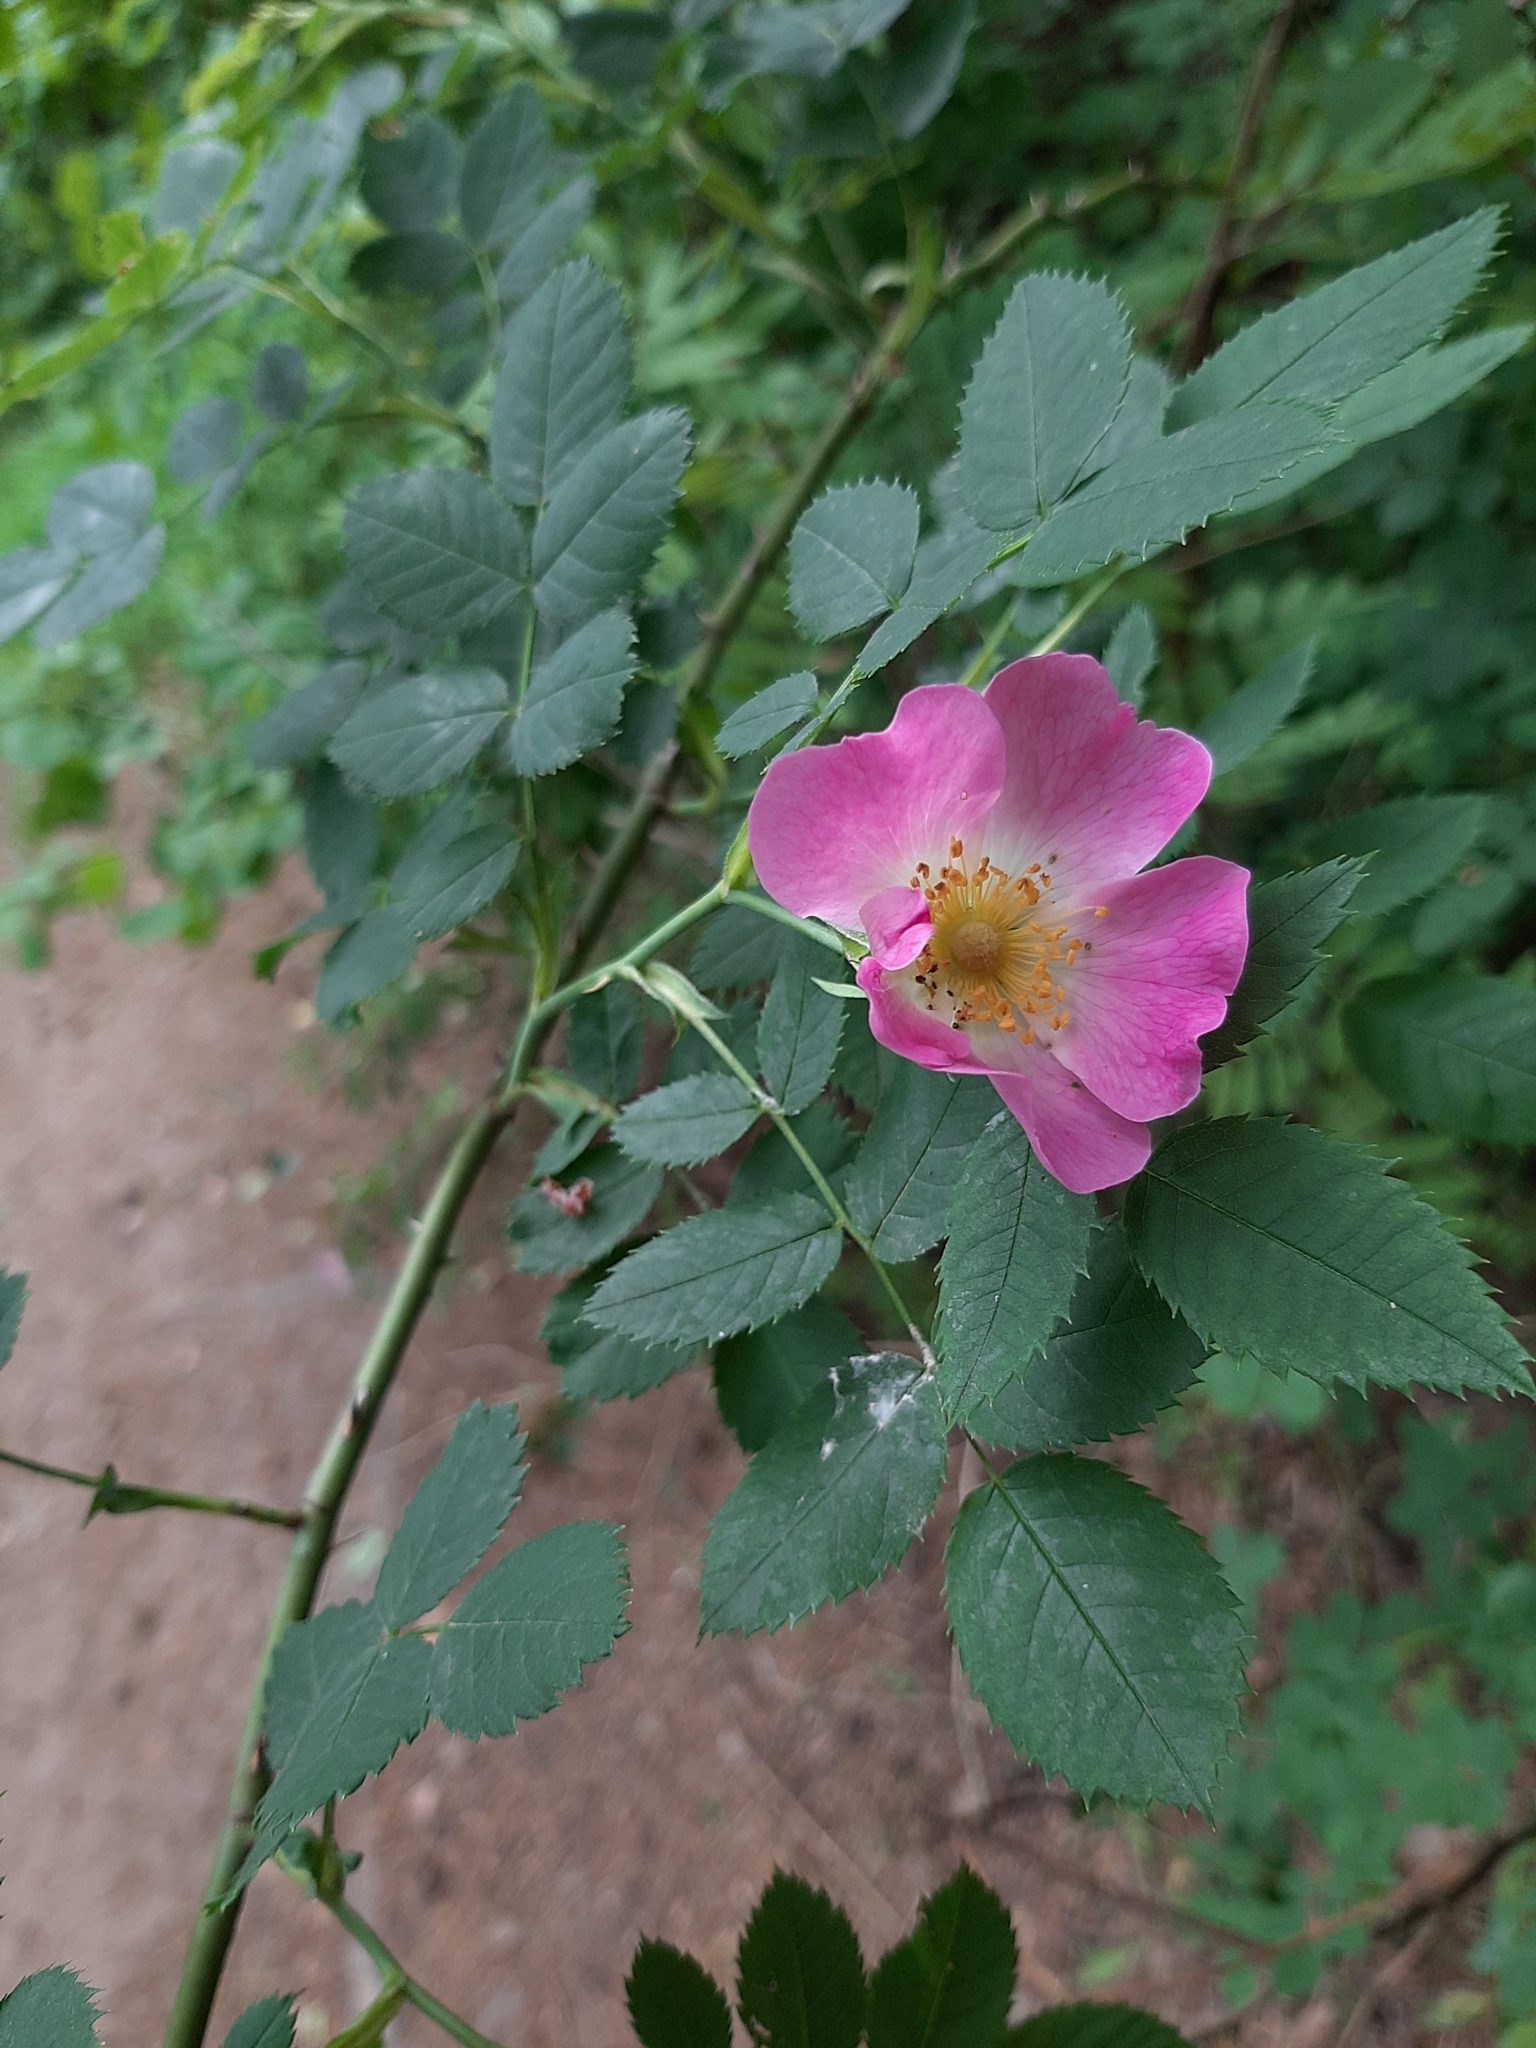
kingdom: Plantae
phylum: Tracheophyta
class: Magnoliopsida
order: Rosales
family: Rosaceae
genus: Rosa
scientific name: Rosa
